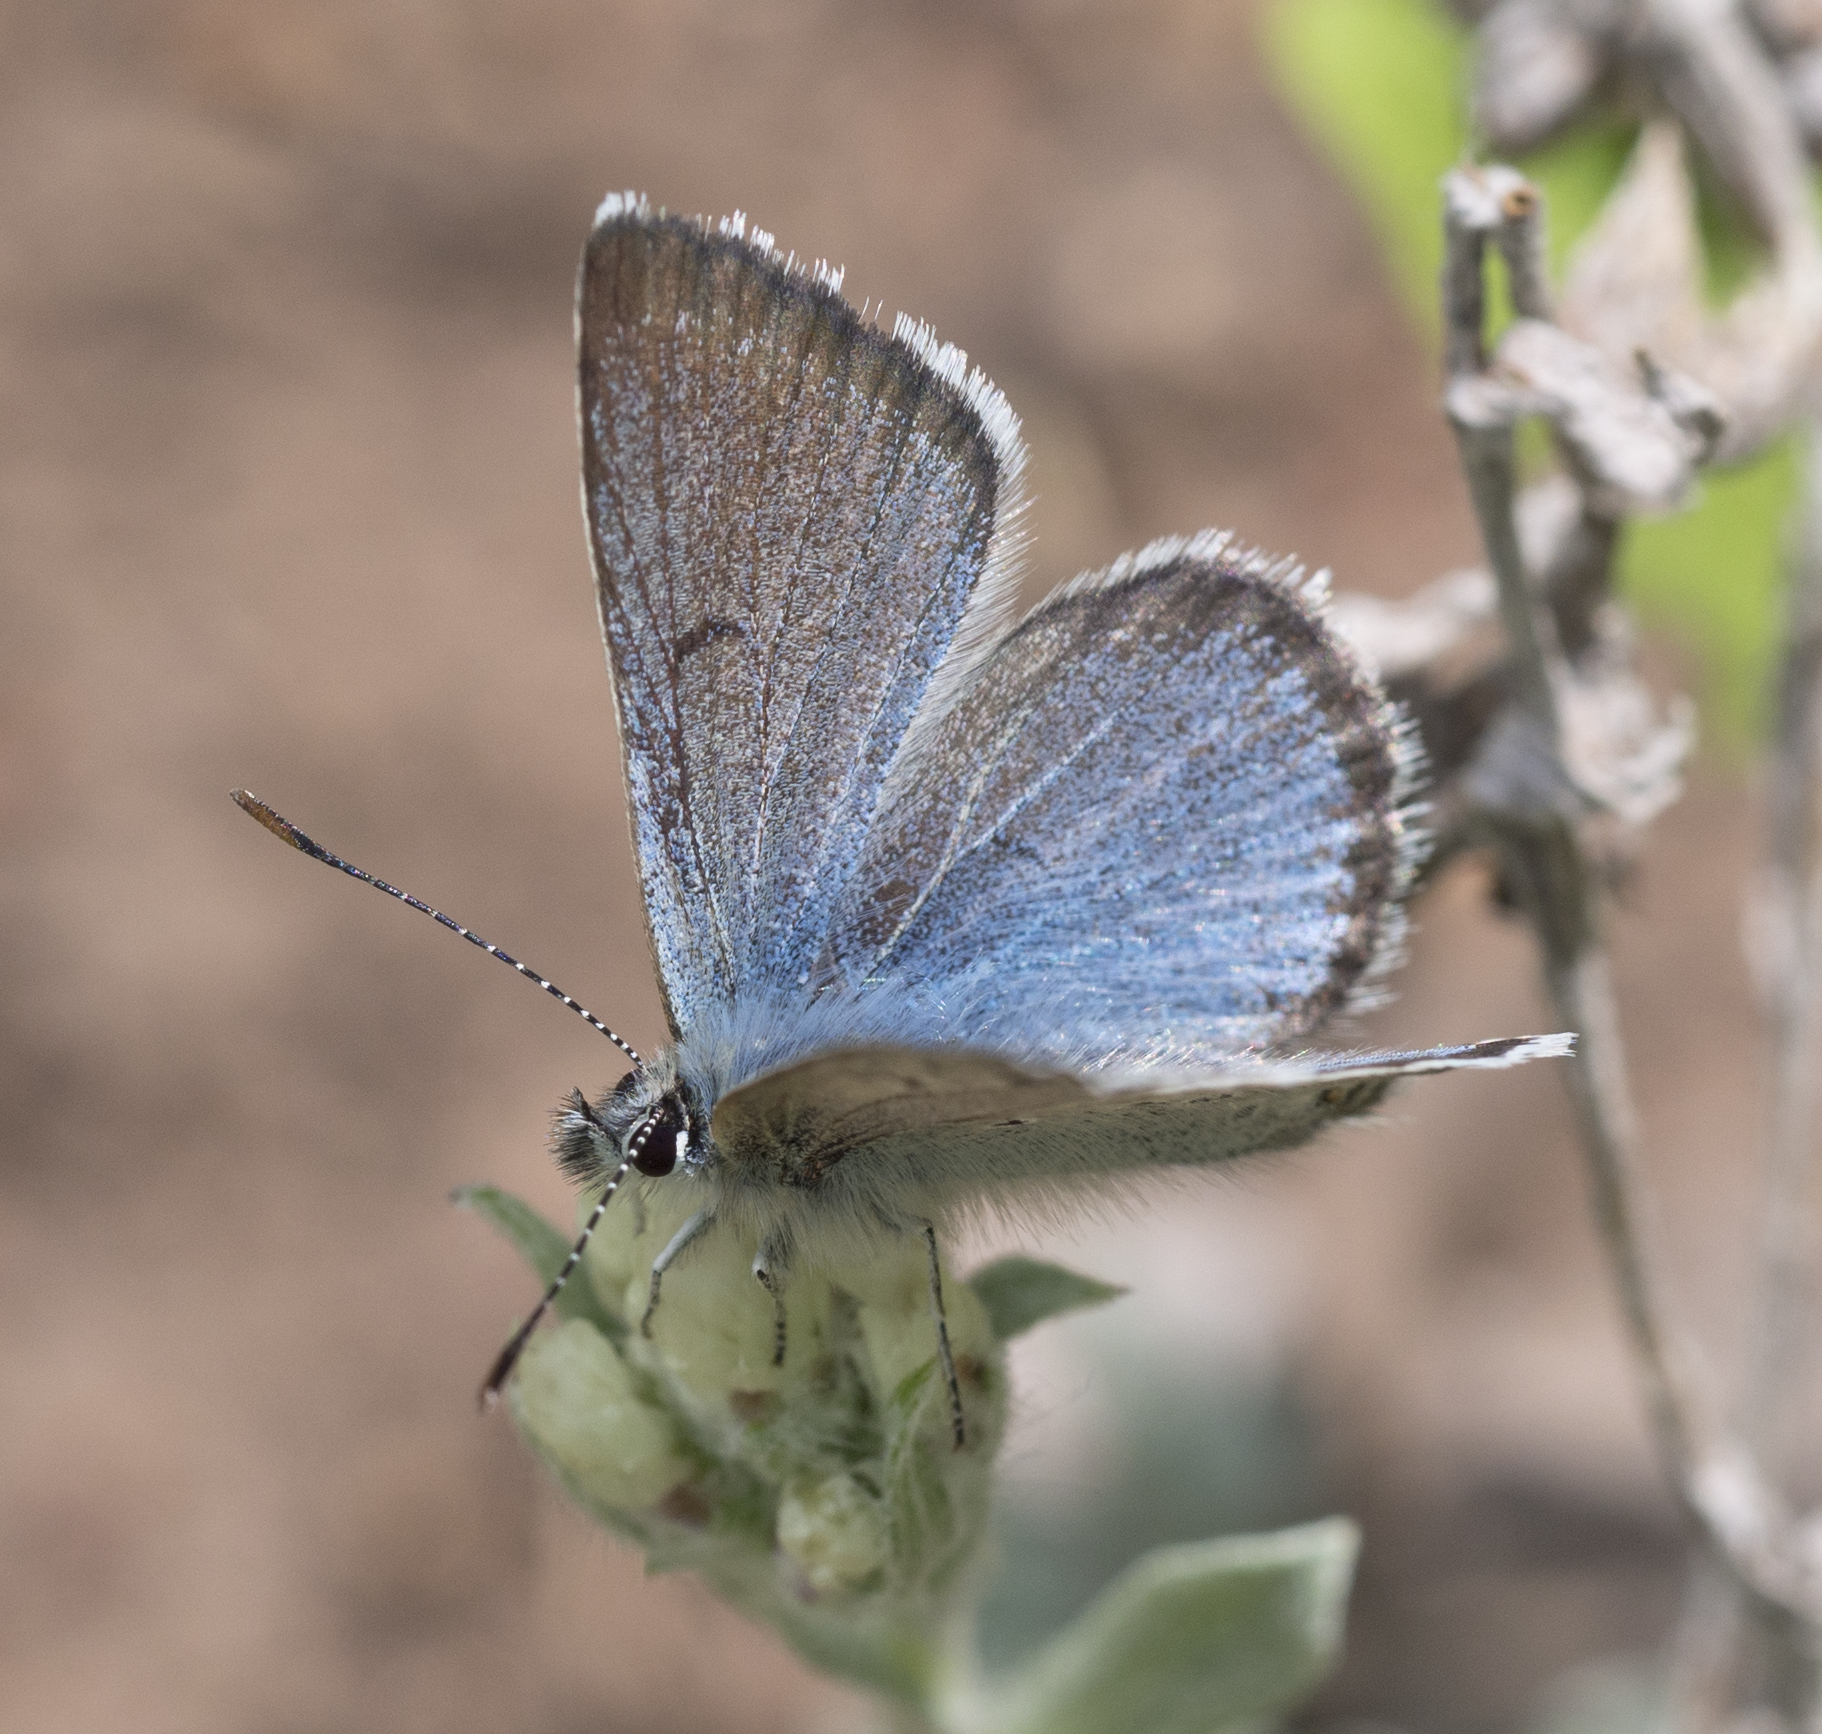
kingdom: Animalia
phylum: Arthropoda
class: Insecta
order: Lepidoptera
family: Lycaenidae
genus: Icaricia
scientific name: Icaricia saepiolus
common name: Greenish blue
